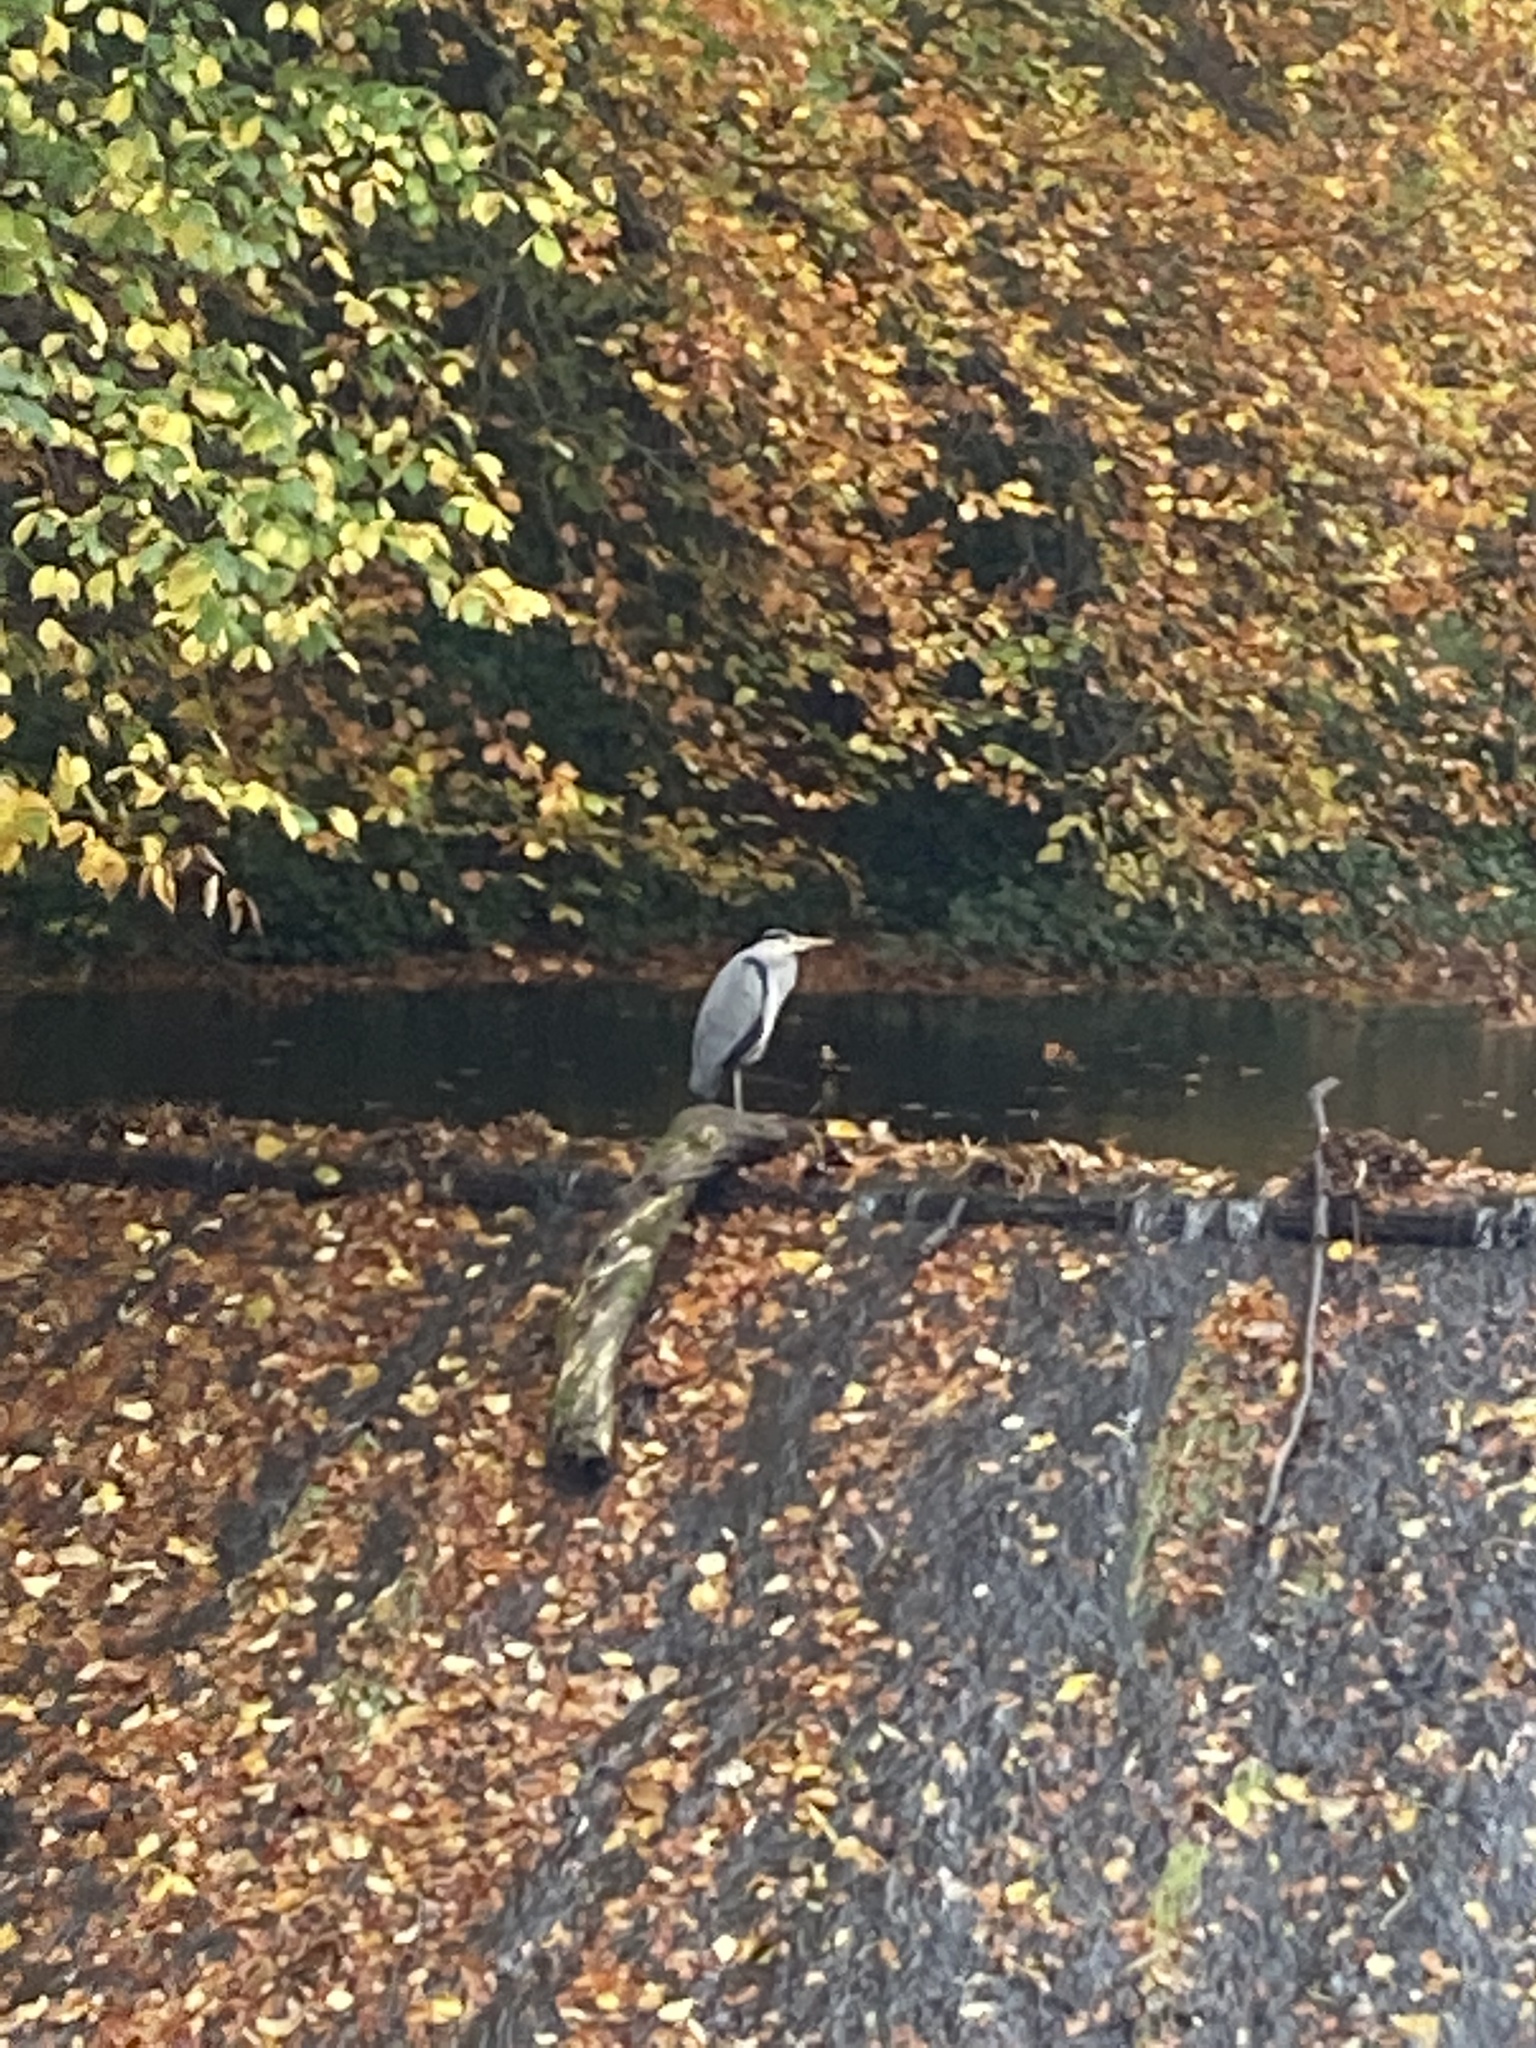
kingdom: Animalia
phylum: Chordata
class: Aves
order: Pelecaniformes
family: Ardeidae
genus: Ardea
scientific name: Ardea cinerea
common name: Grey heron
